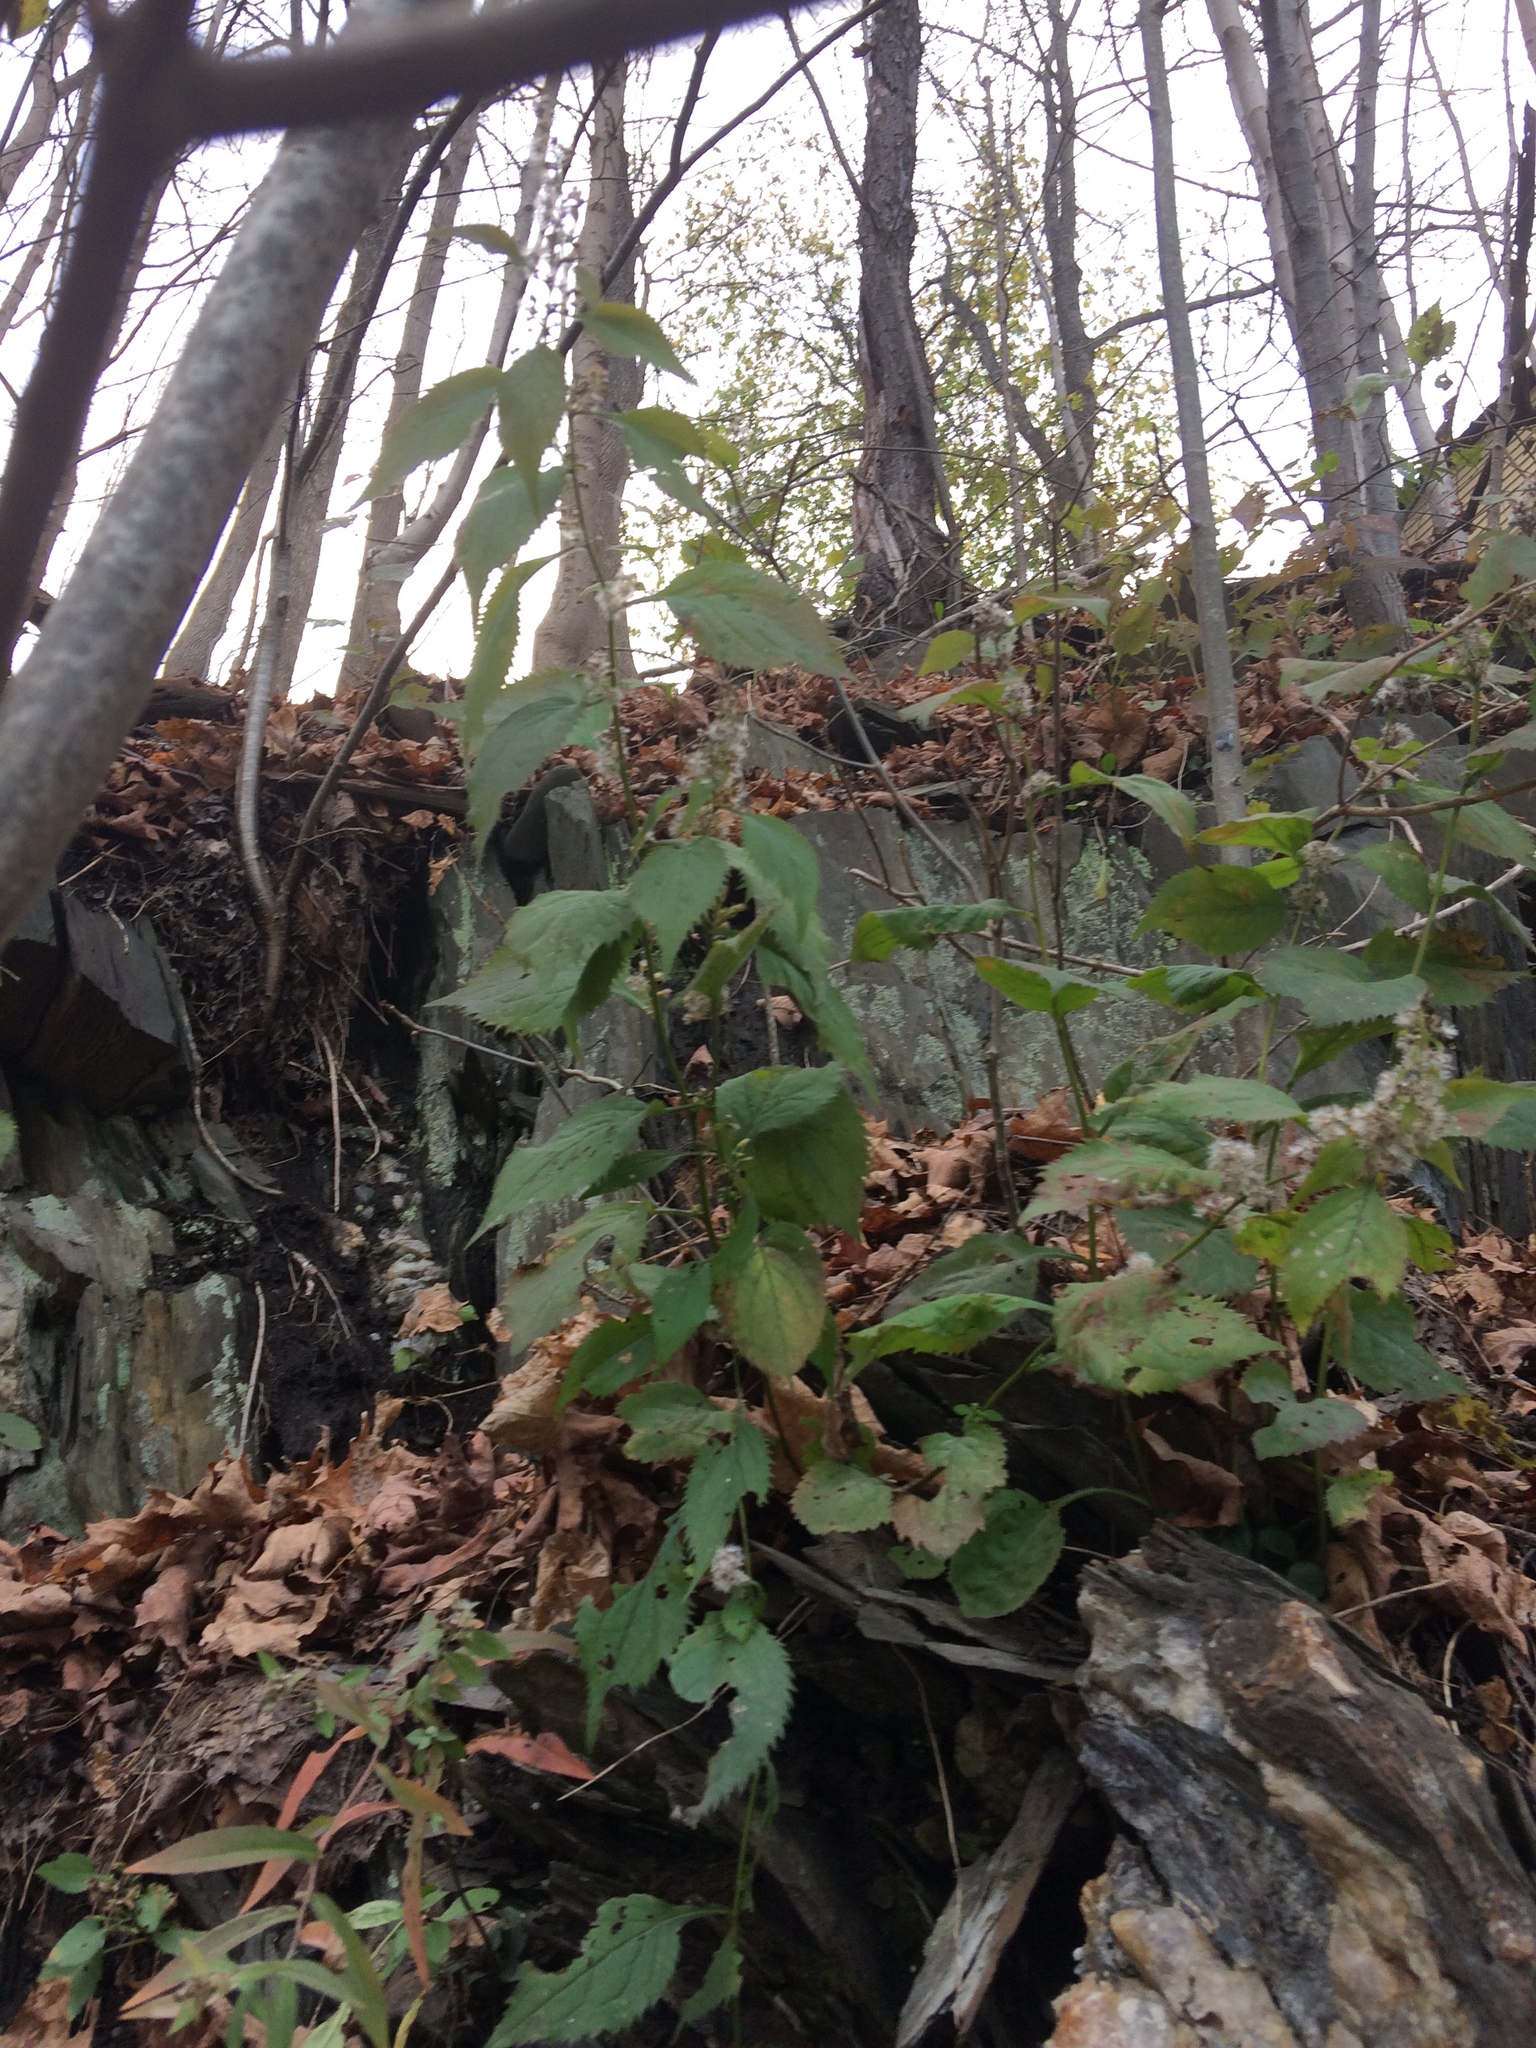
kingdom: Plantae
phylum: Tracheophyta
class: Magnoliopsida
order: Asterales
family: Asteraceae
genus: Solidago
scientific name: Solidago flexicaulis
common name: Zig-zag goldenrod
